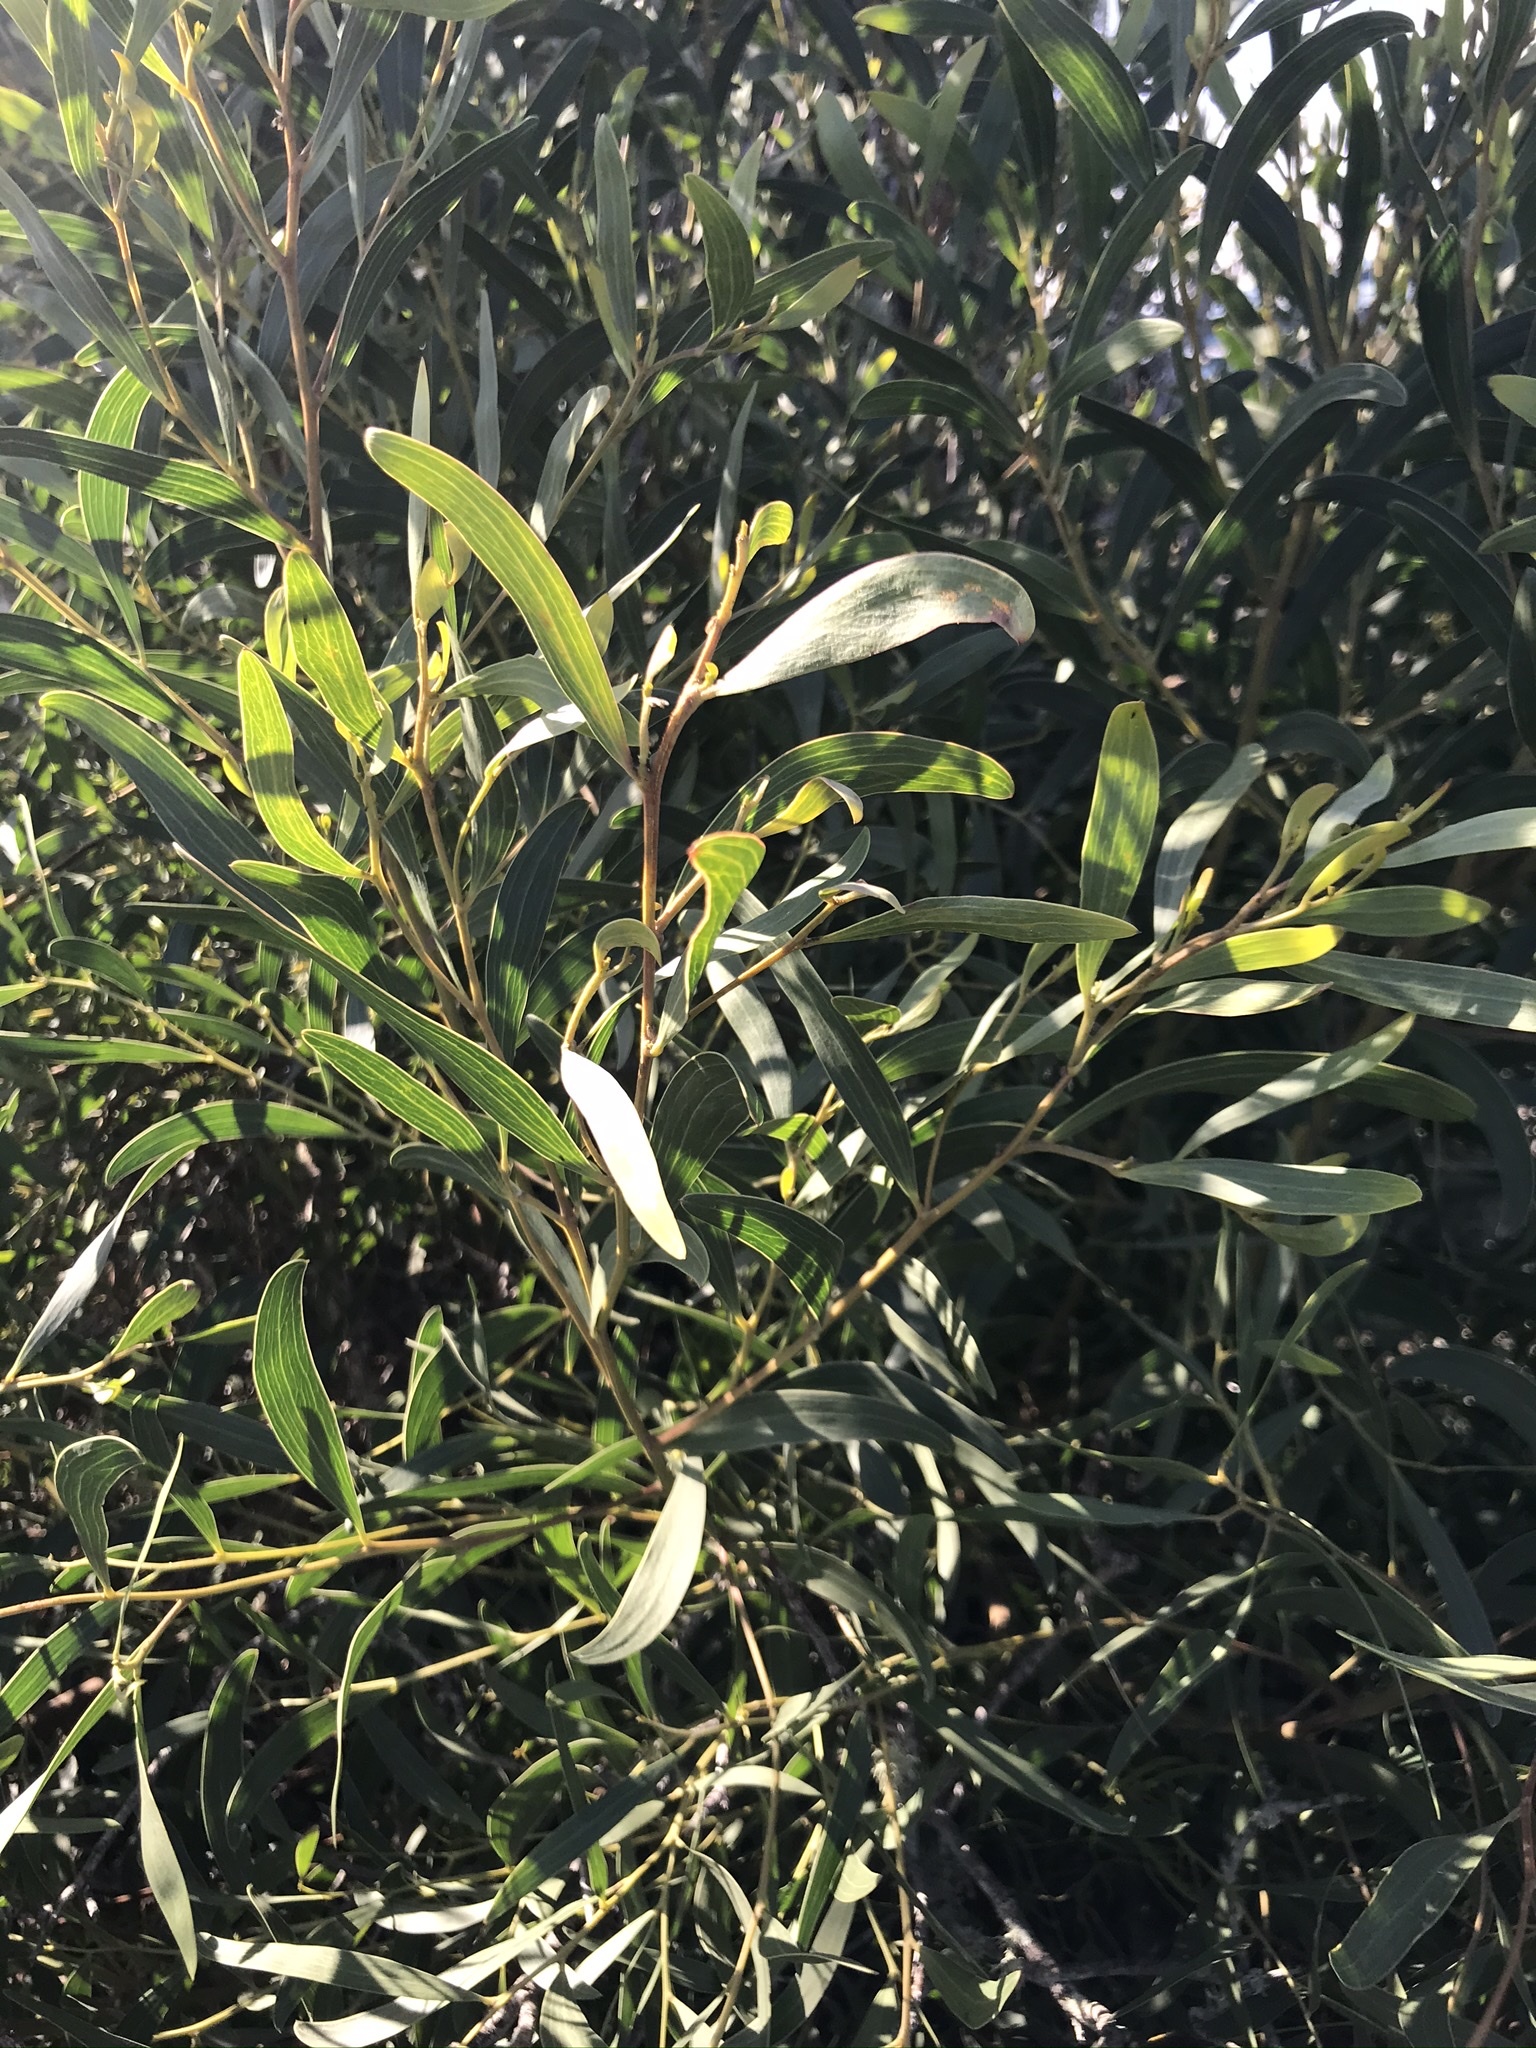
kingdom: Plantae
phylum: Tracheophyta
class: Magnoliopsida
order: Fabales
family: Fabaceae
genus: Acacia
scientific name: Acacia cyclops
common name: Coastal wattle
